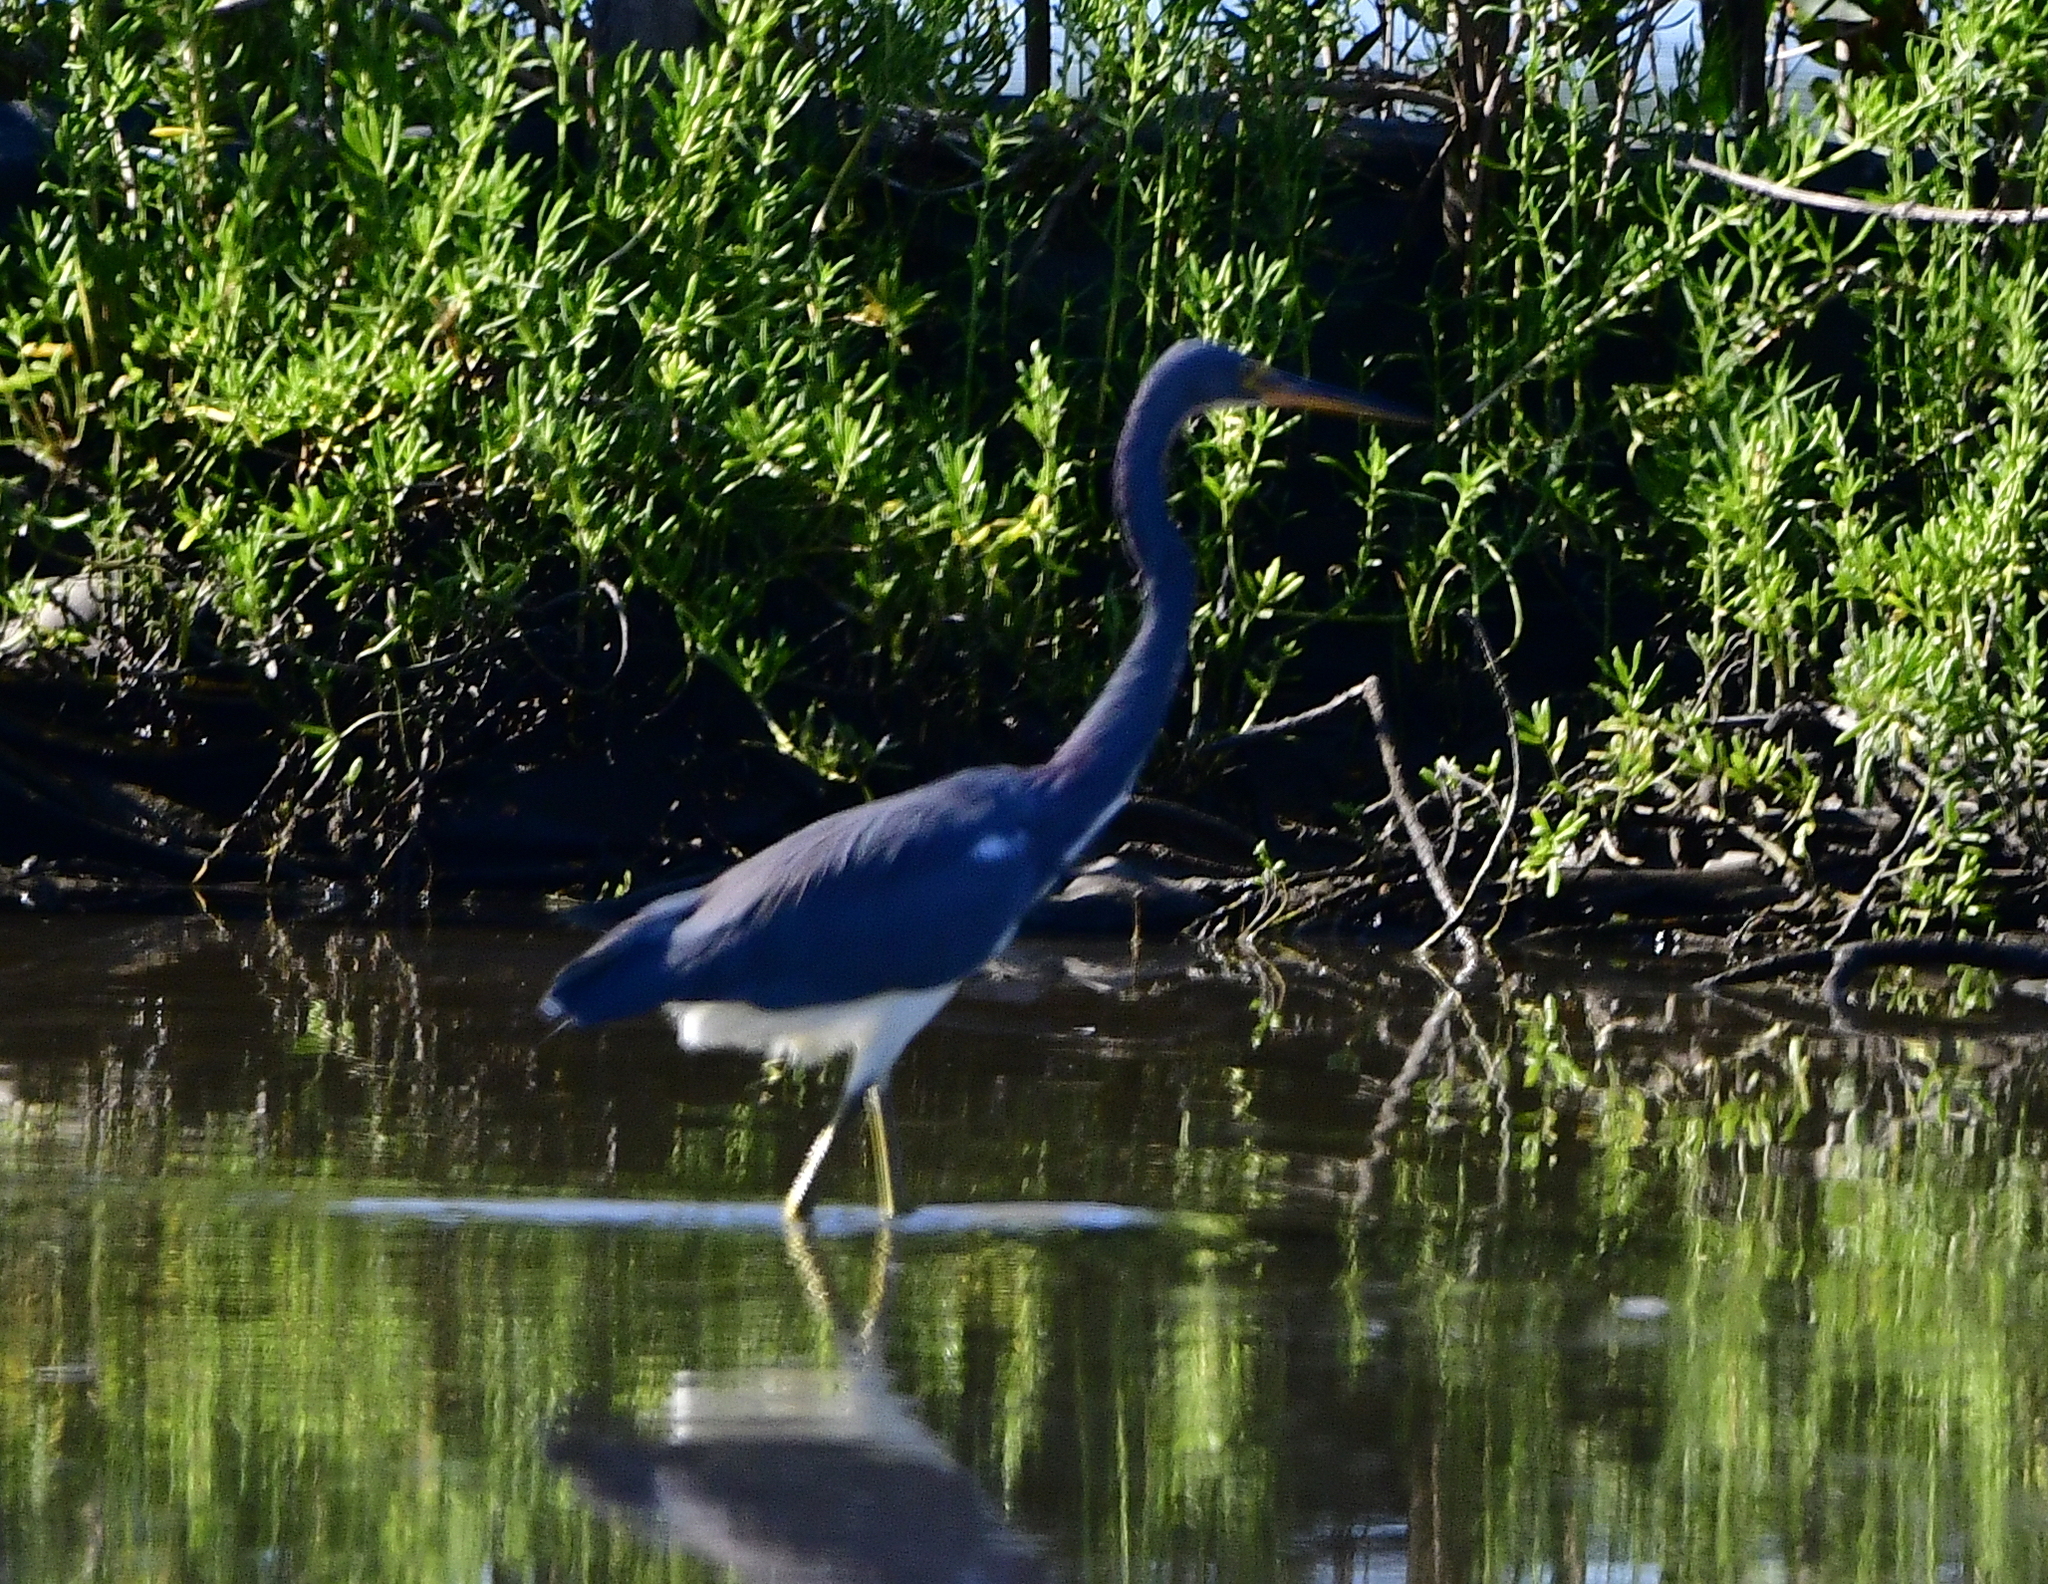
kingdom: Animalia
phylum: Chordata
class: Aves
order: Pelecaniformes
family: Ardeidae
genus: Egretta
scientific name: Egretta tricolor
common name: Tricolored heron
